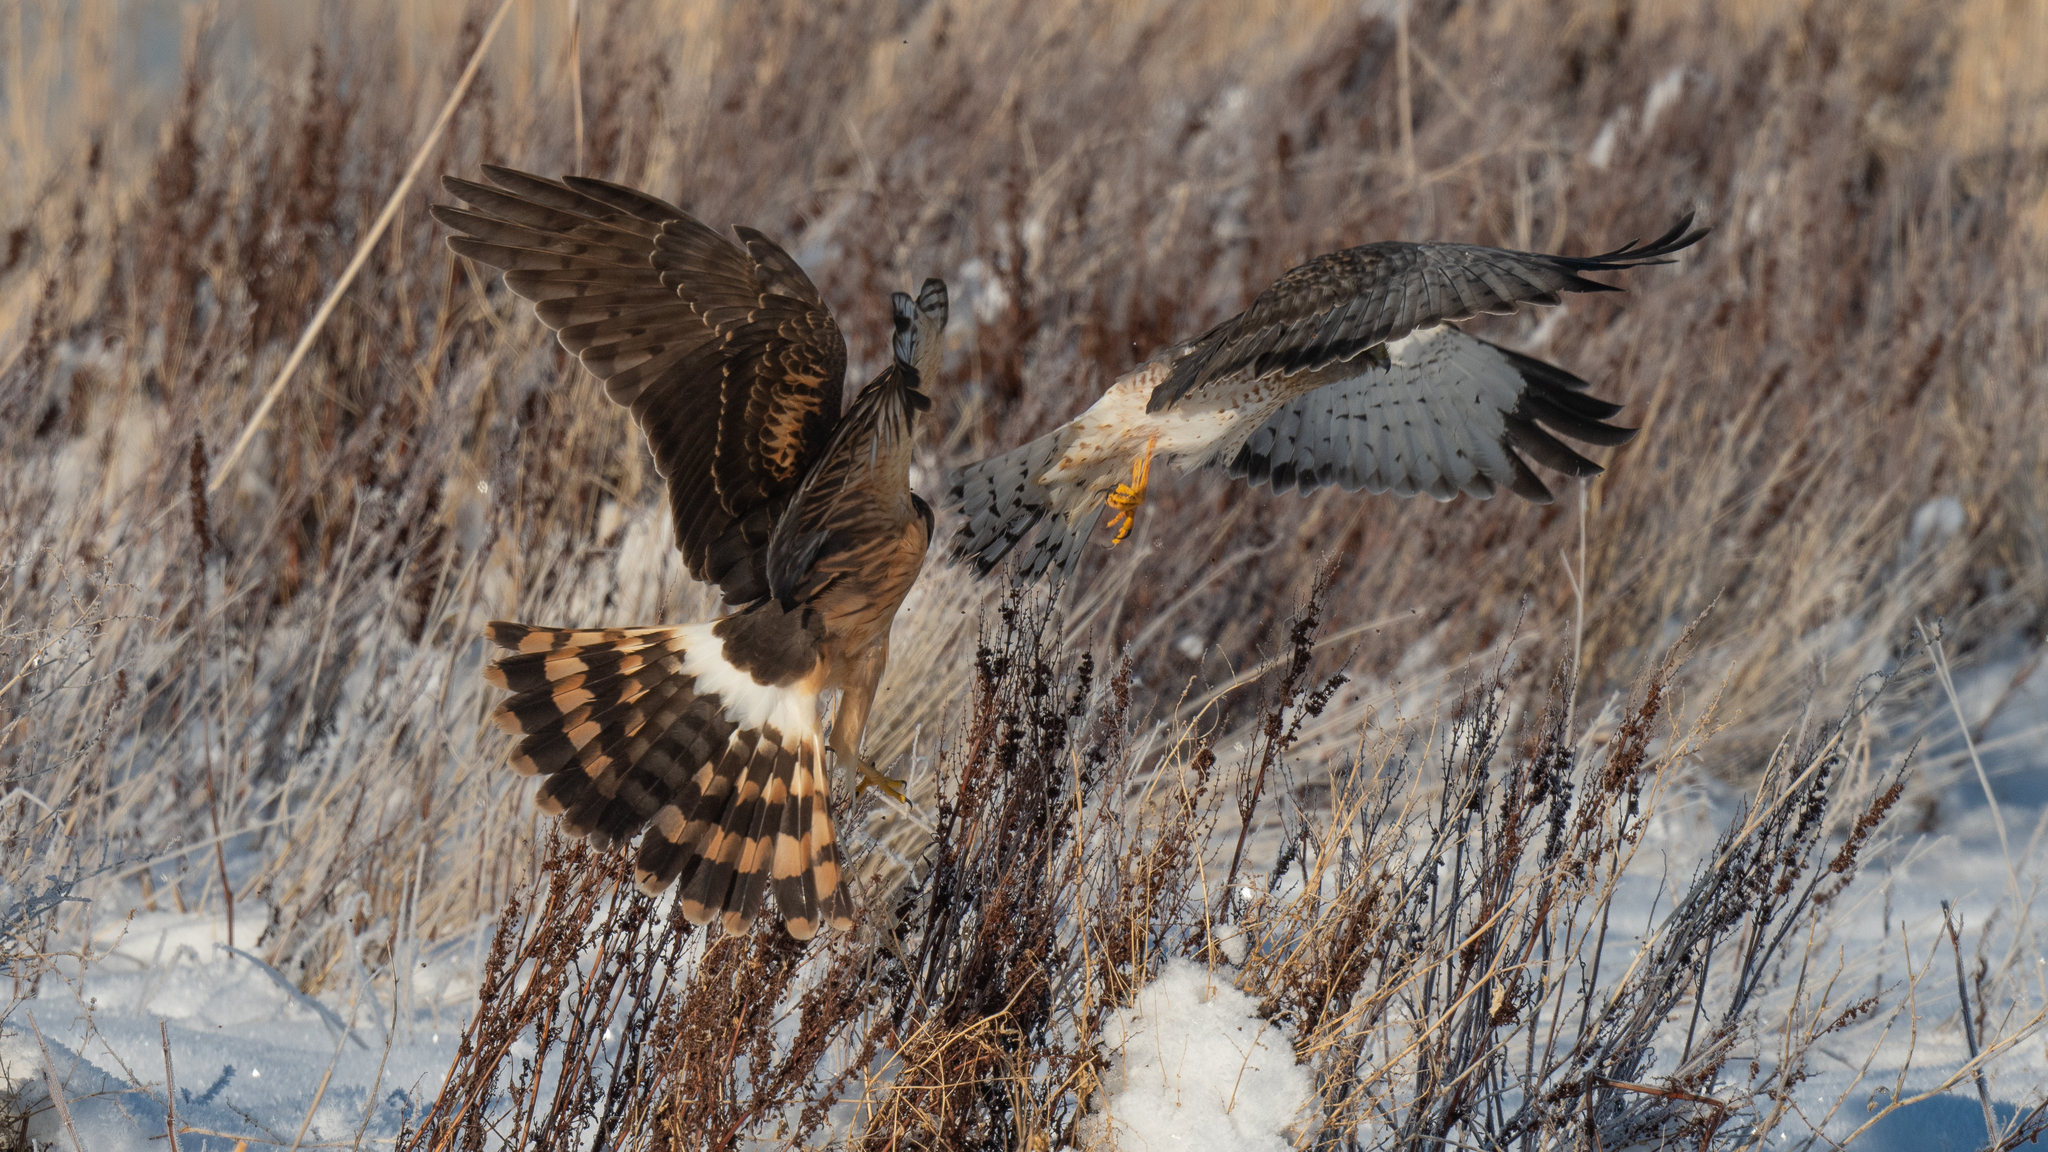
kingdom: Animalia
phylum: Chordata
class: Aves
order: Accipitriformes
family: Accipitridae
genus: Circus
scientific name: Circus cyaneus
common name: Hen harrier
